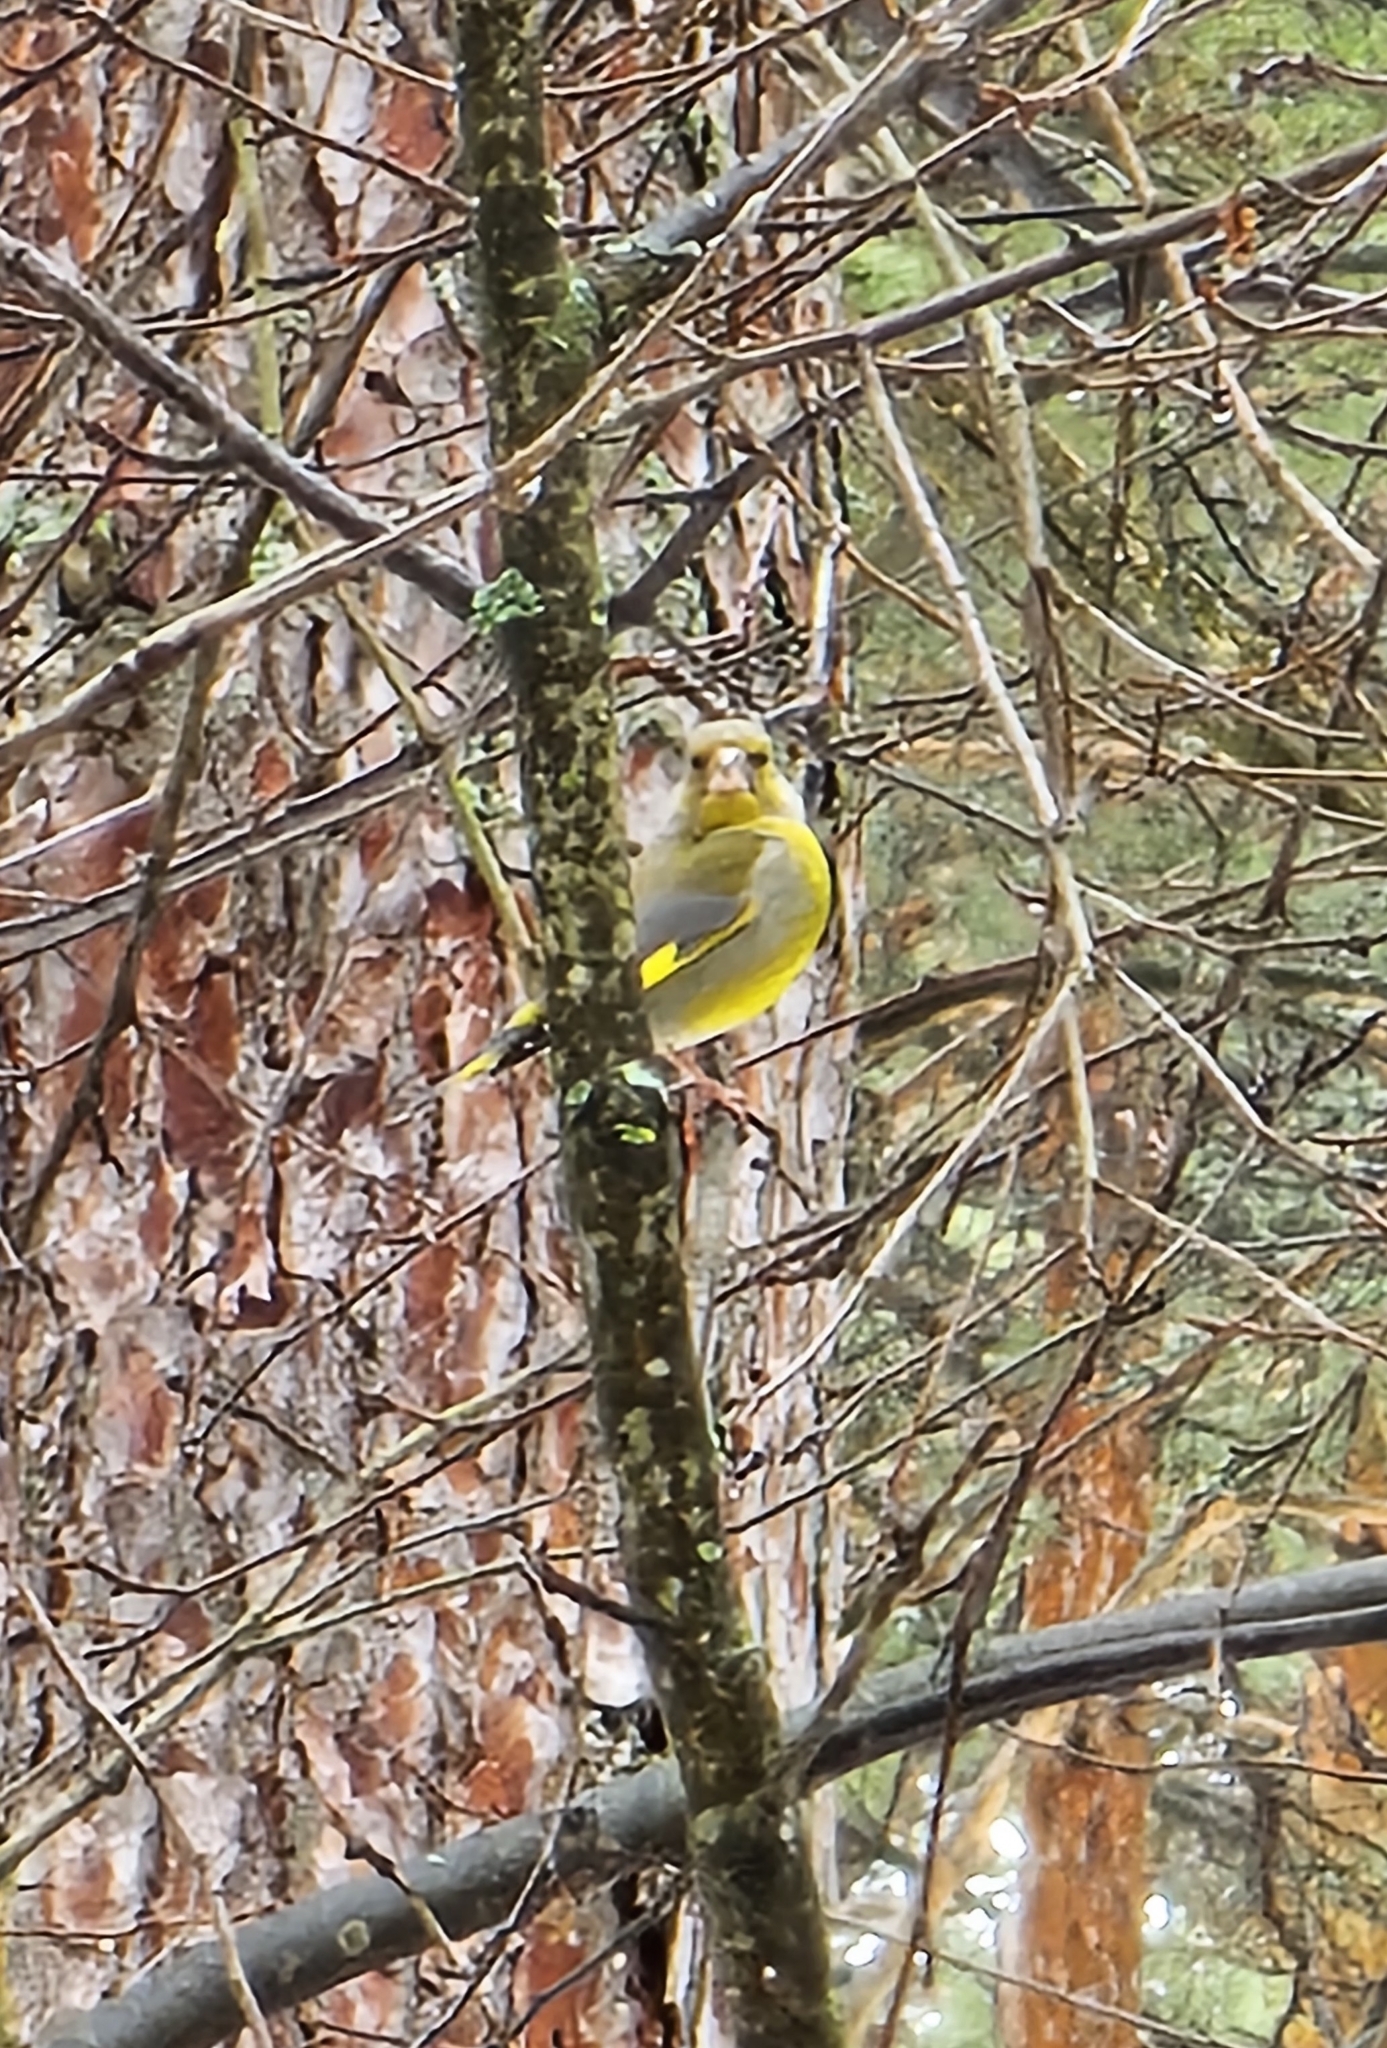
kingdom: Plantae
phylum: Tracheophyta
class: Liliopsida
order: Poales
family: Poaceae
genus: Chloris
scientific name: Chloris chloris
